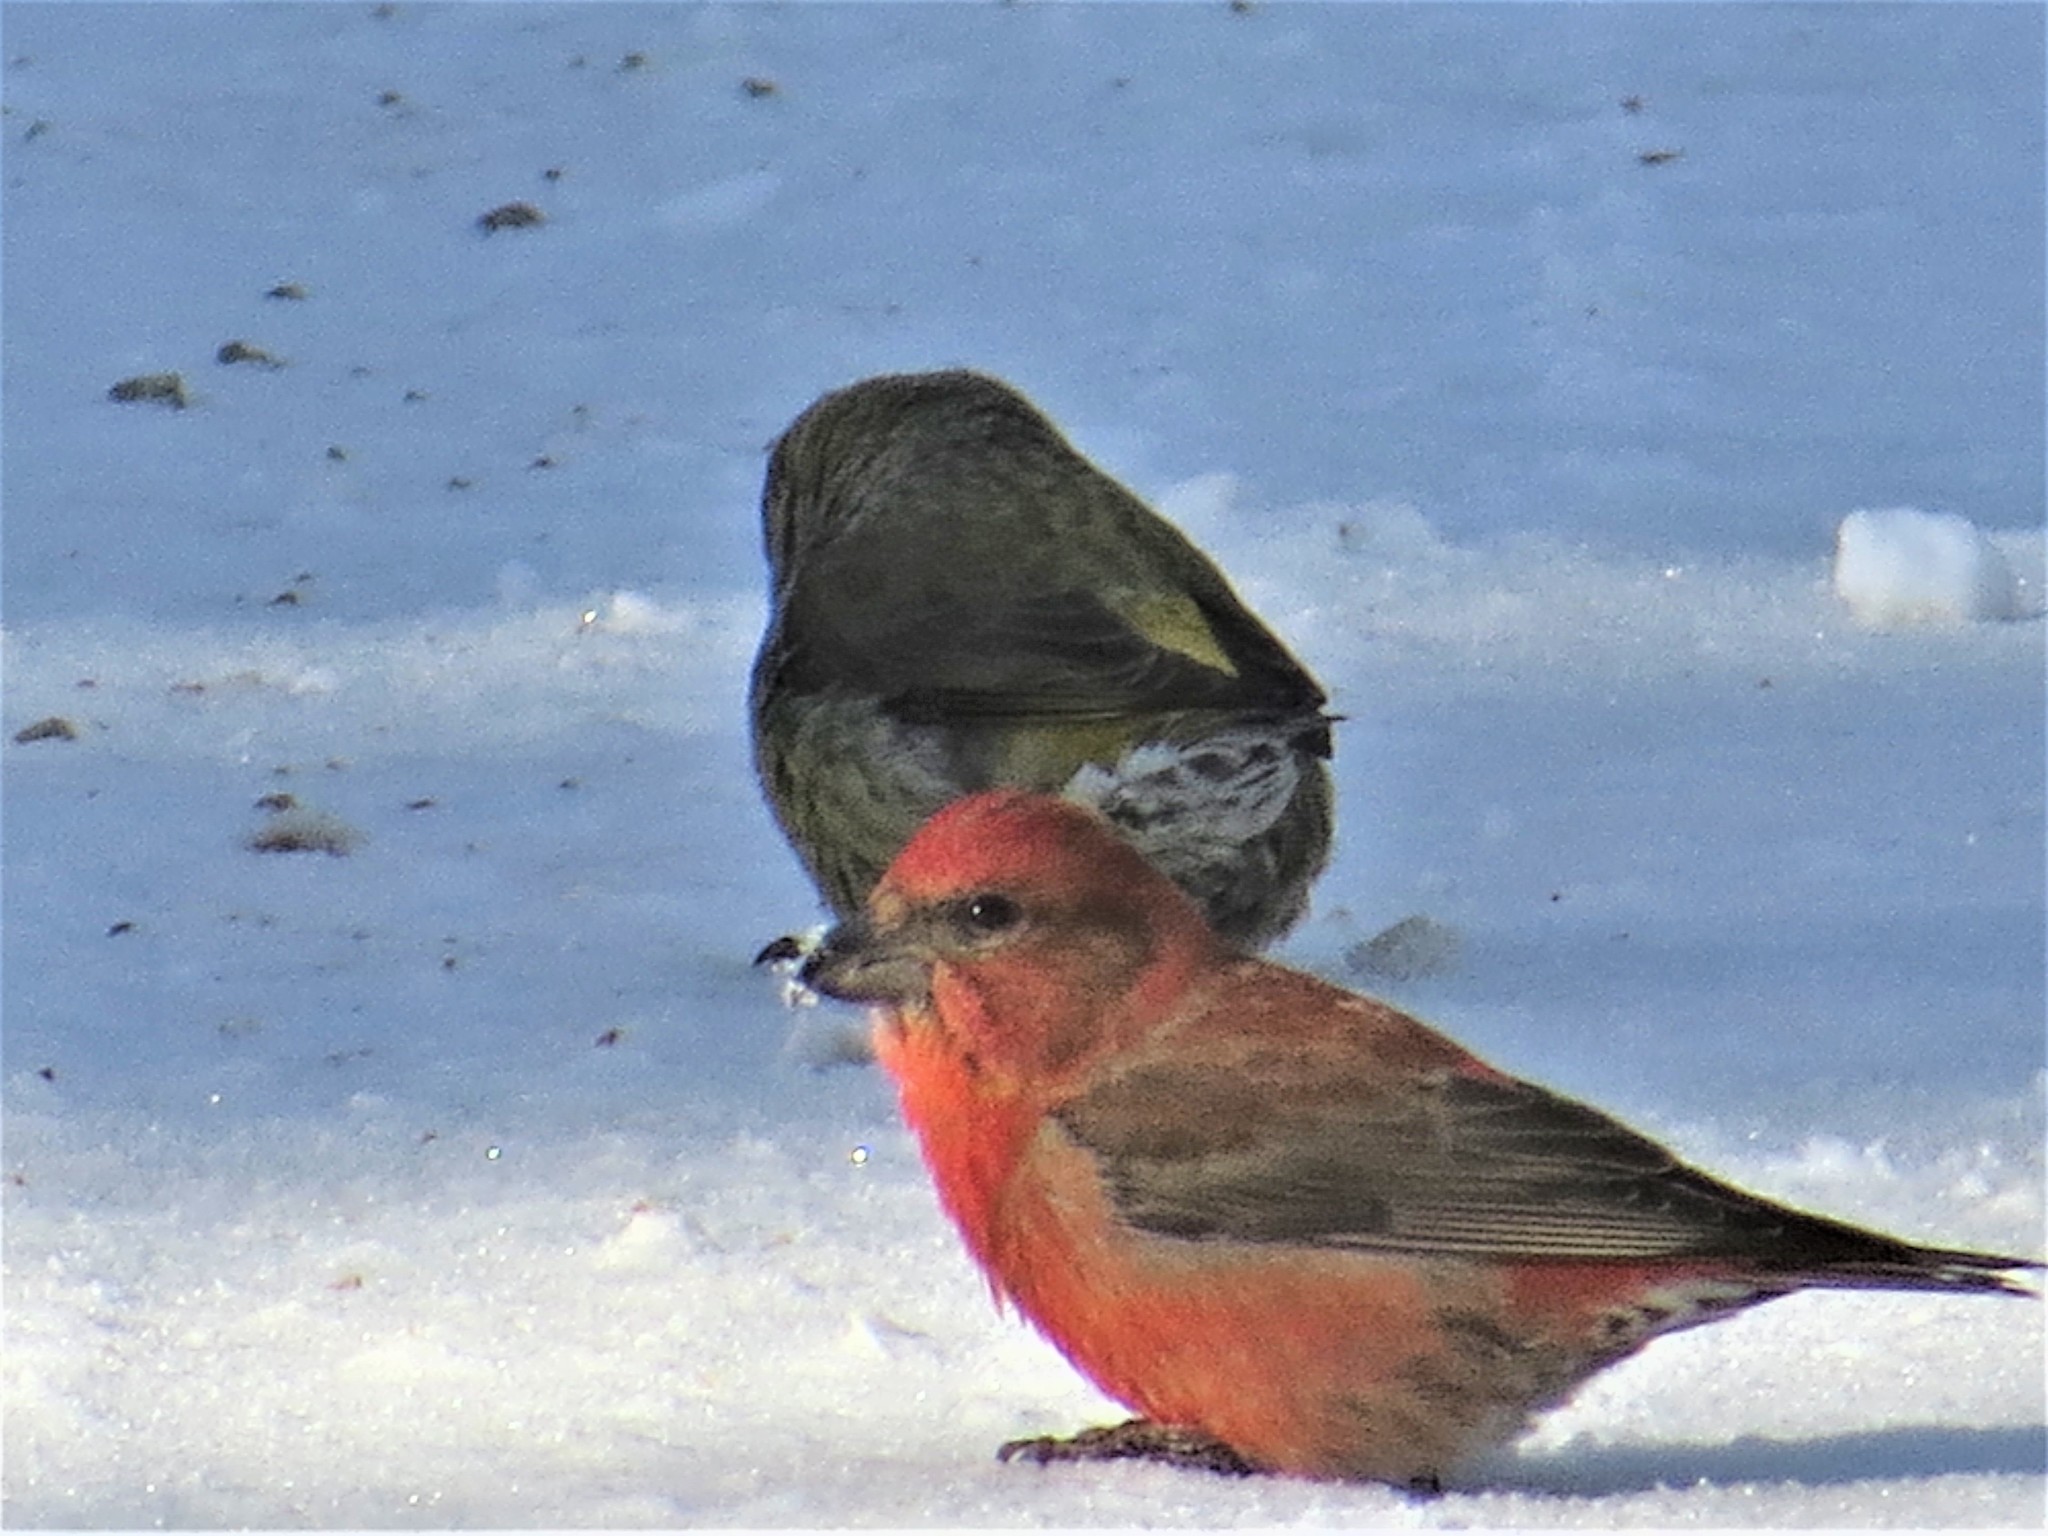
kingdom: Animalia
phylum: Chordata
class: Aves
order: Passeriformes
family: Fringillidae
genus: Loxia
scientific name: Loxia curvirostra
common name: Red crossbill
